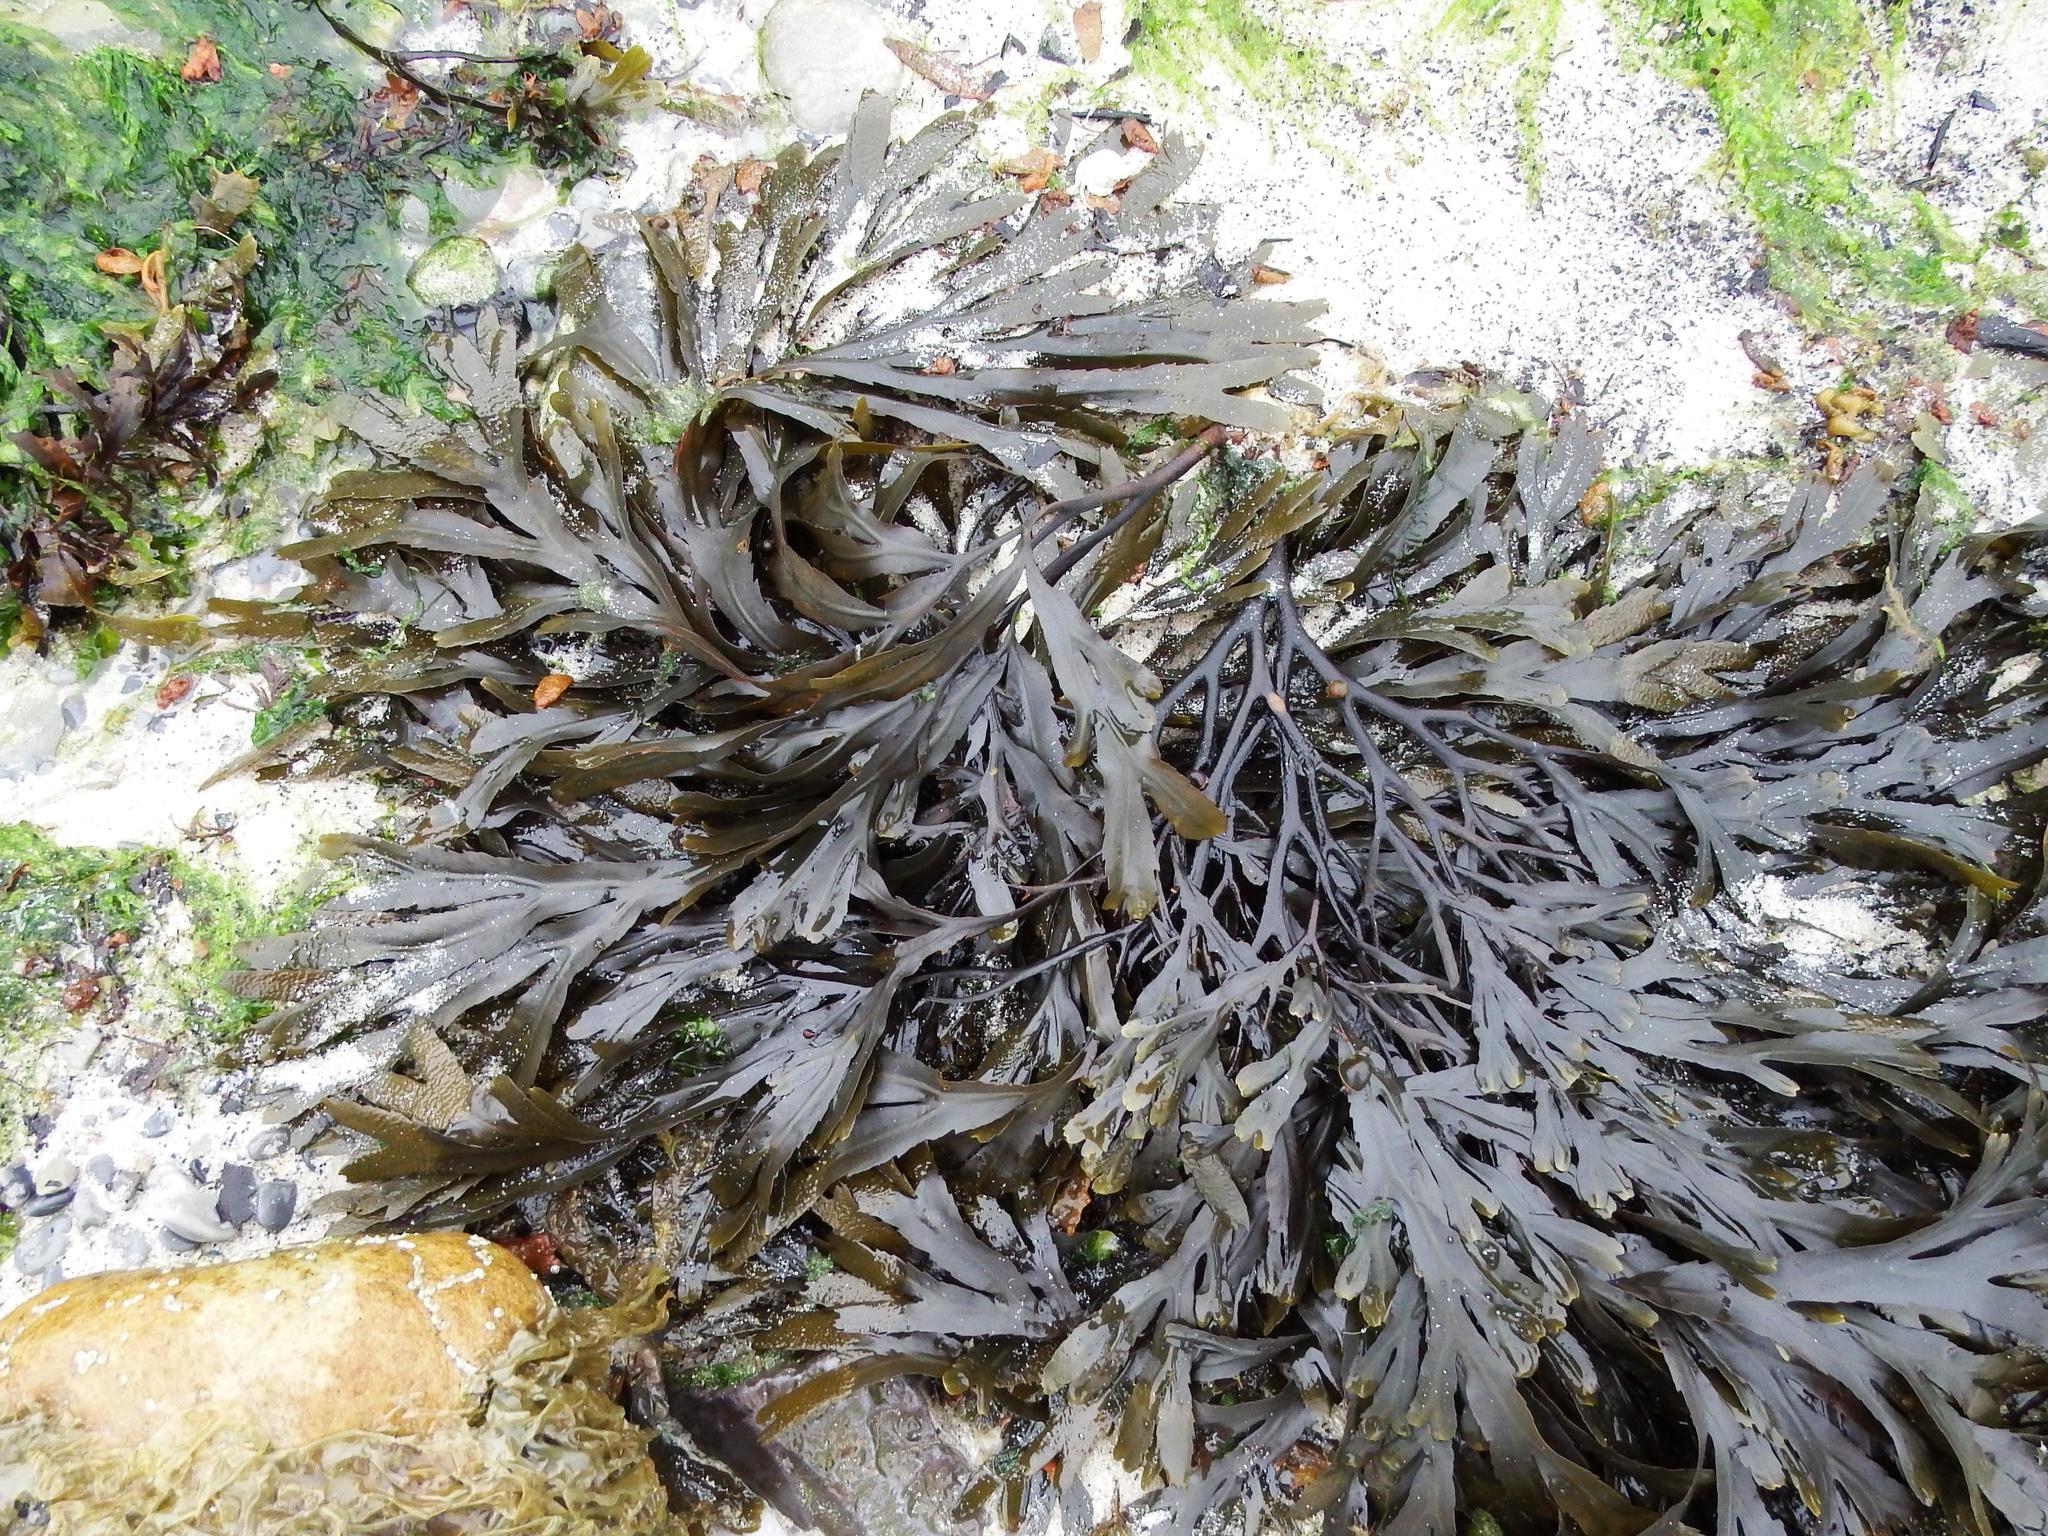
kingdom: Chromista
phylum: Ochrophyta
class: Phaeophyceae
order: Fucales
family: Fucaceae
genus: Fucus
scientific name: Fucus serratus
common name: Toothed wrack
